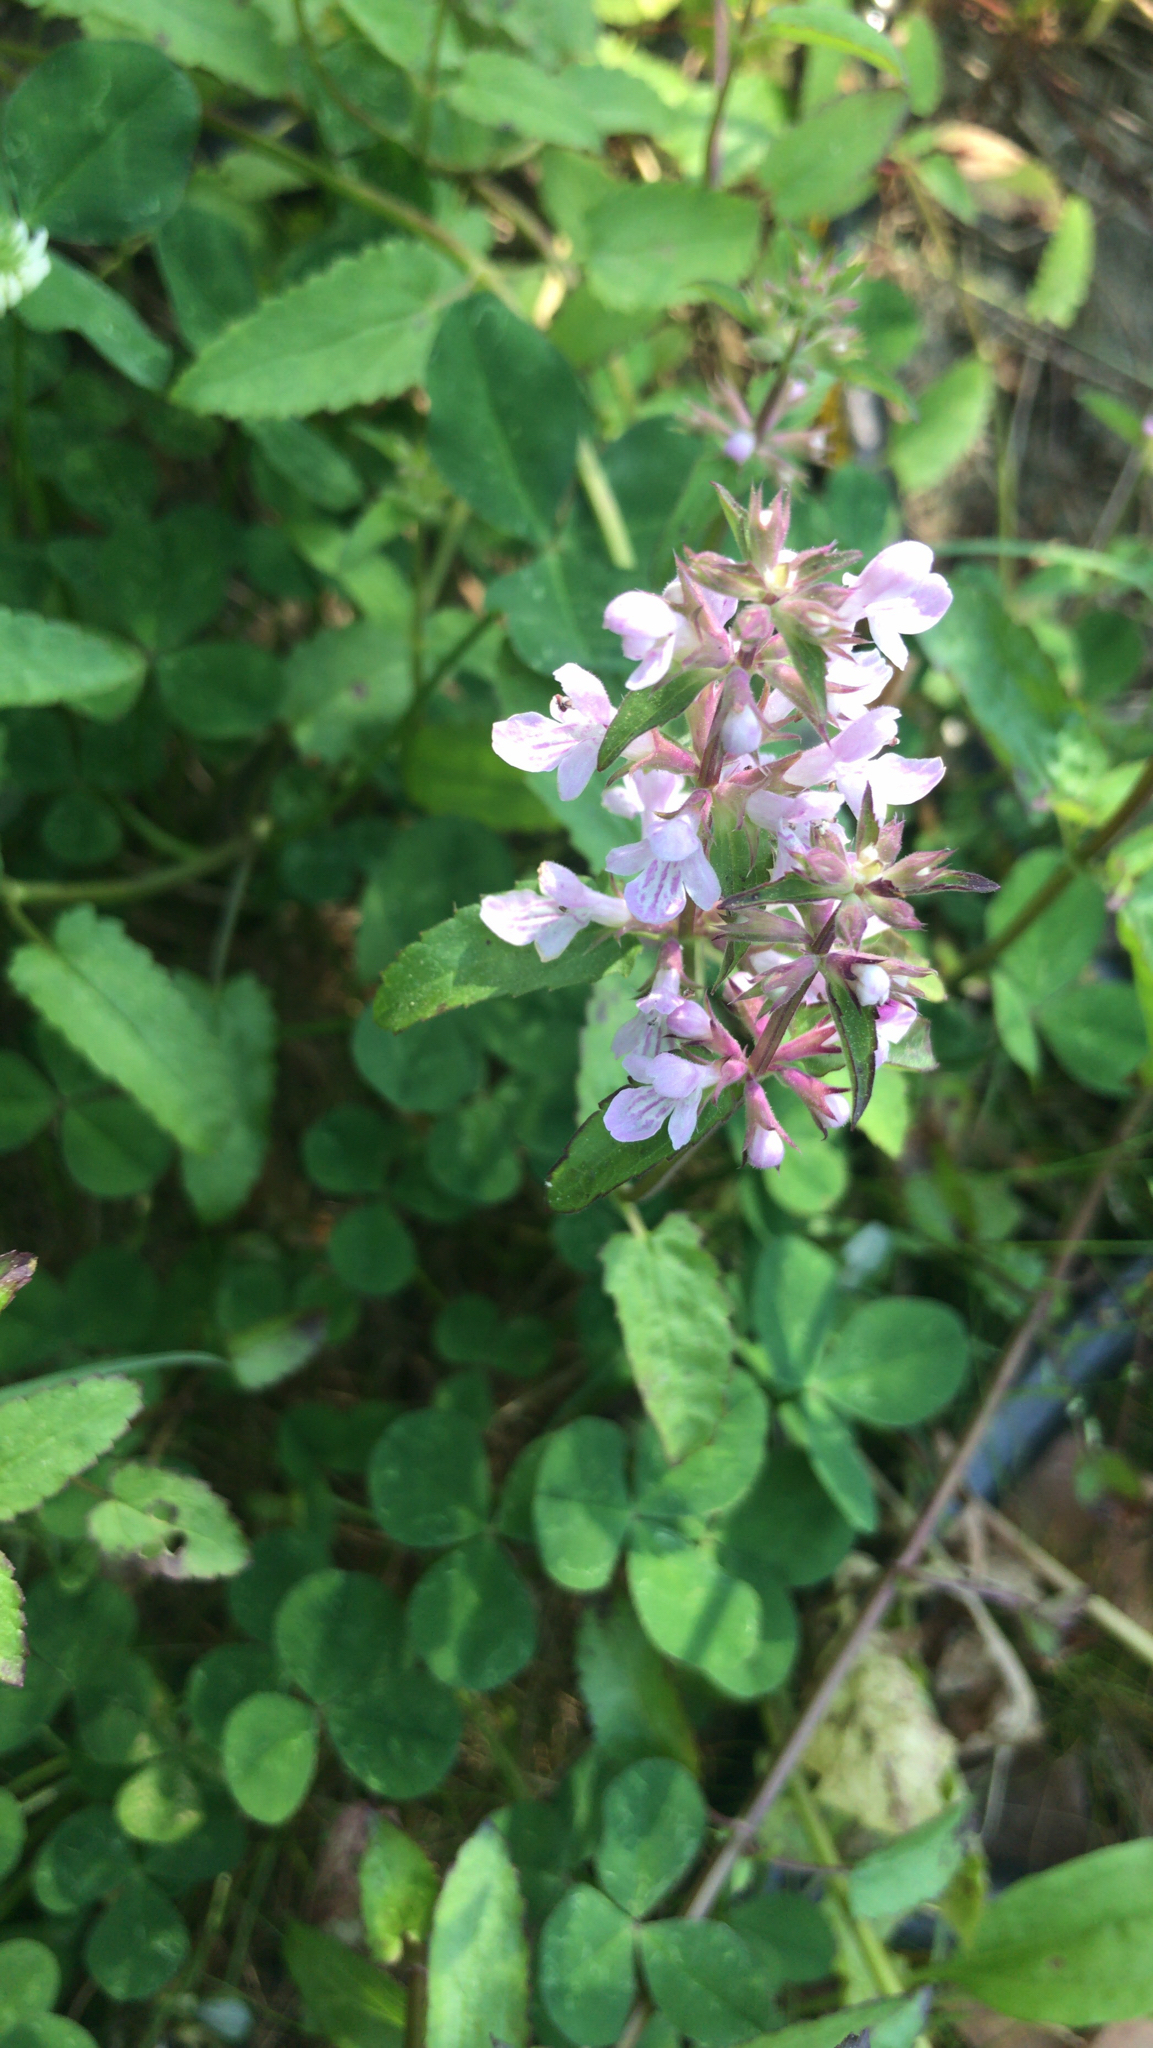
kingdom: Plantae
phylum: Tracheophyta
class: Magnoliopsida
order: Lamiales
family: Lamiaceae
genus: Stachys
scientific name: Stachys floridana
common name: Florida betony
